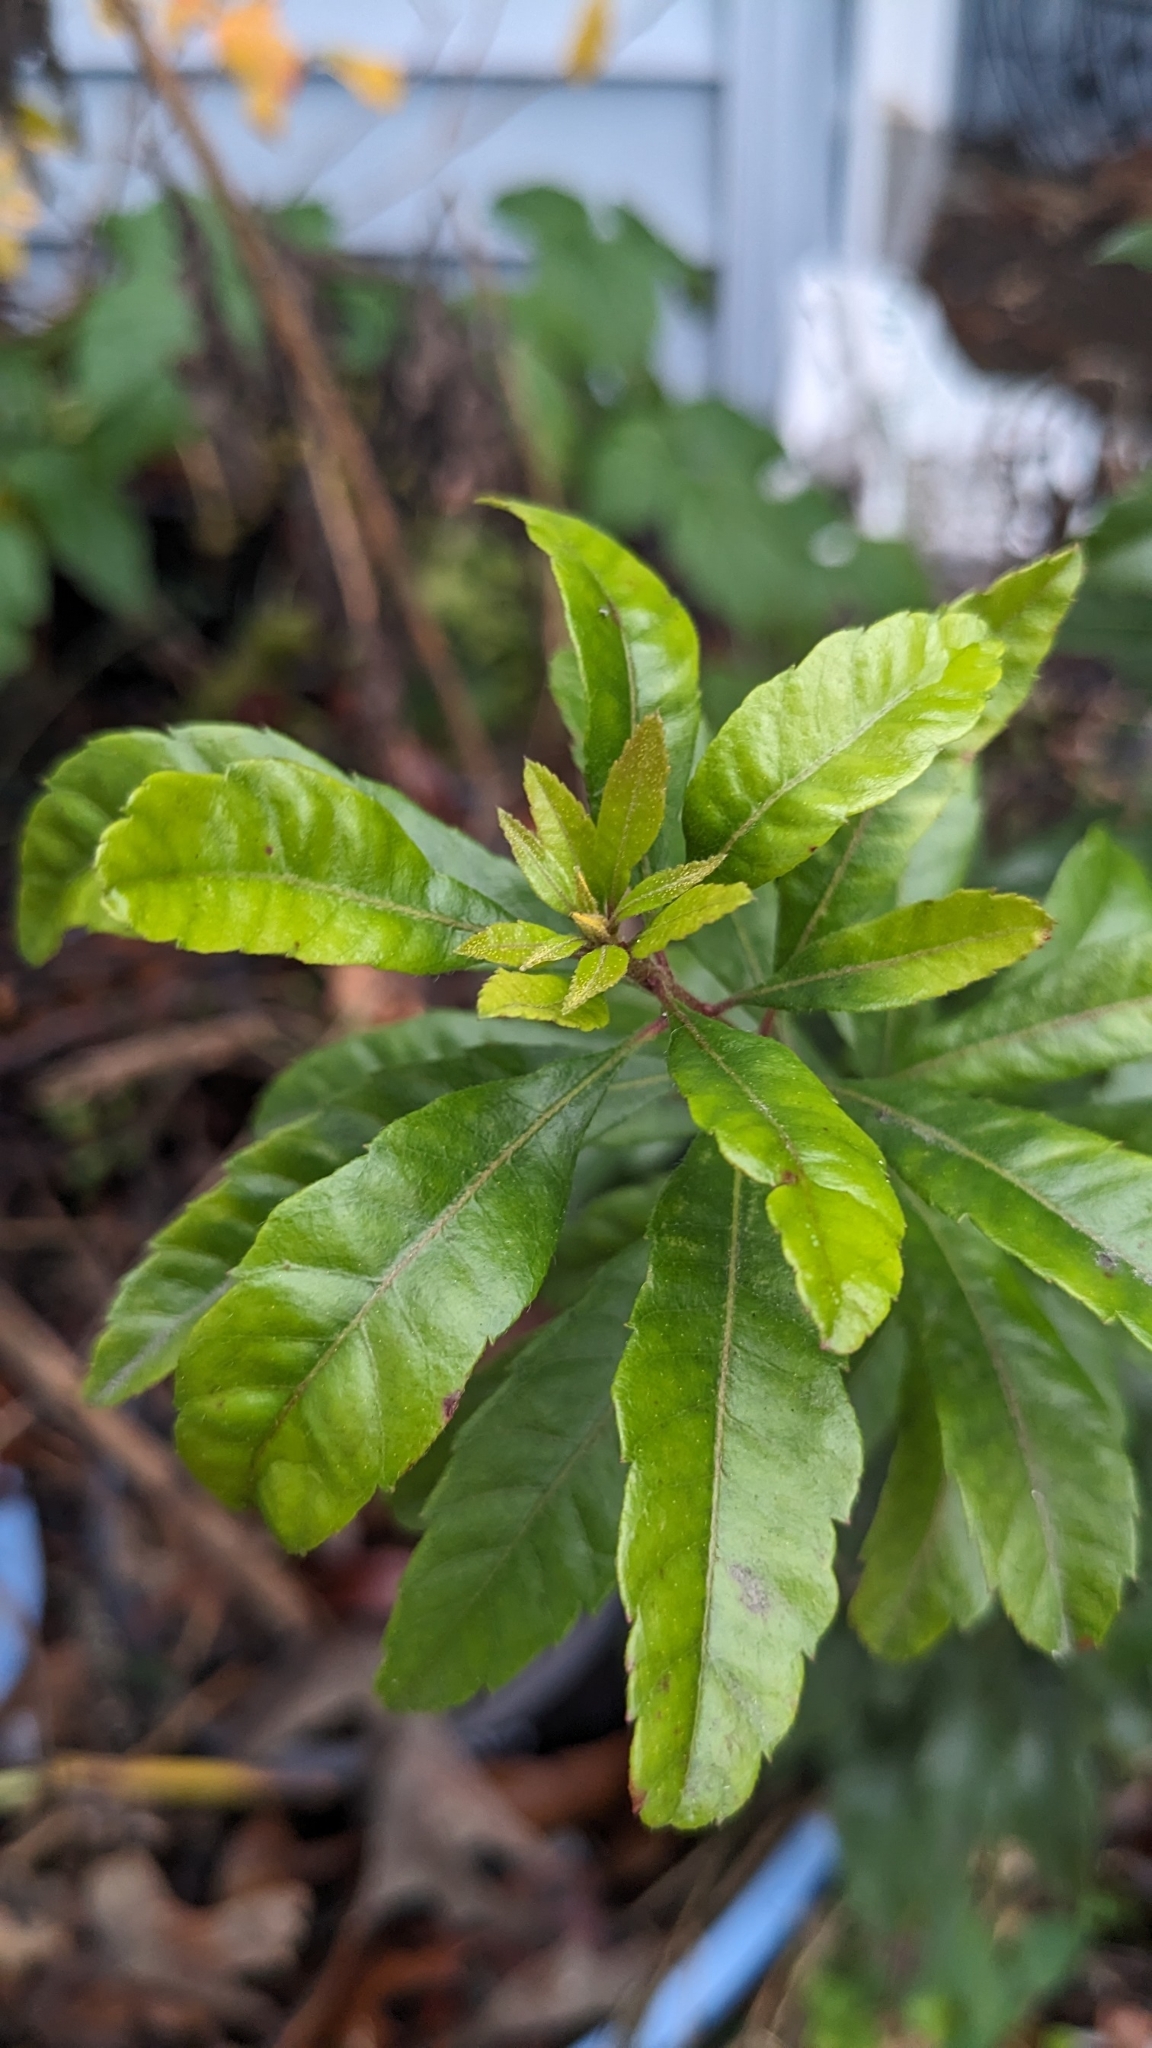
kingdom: Plantae
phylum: Tracheophyta
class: Magnoliopsida
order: Fagales
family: Myricaceae
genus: Morella
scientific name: Morella cerifera
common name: Wax myrtle
